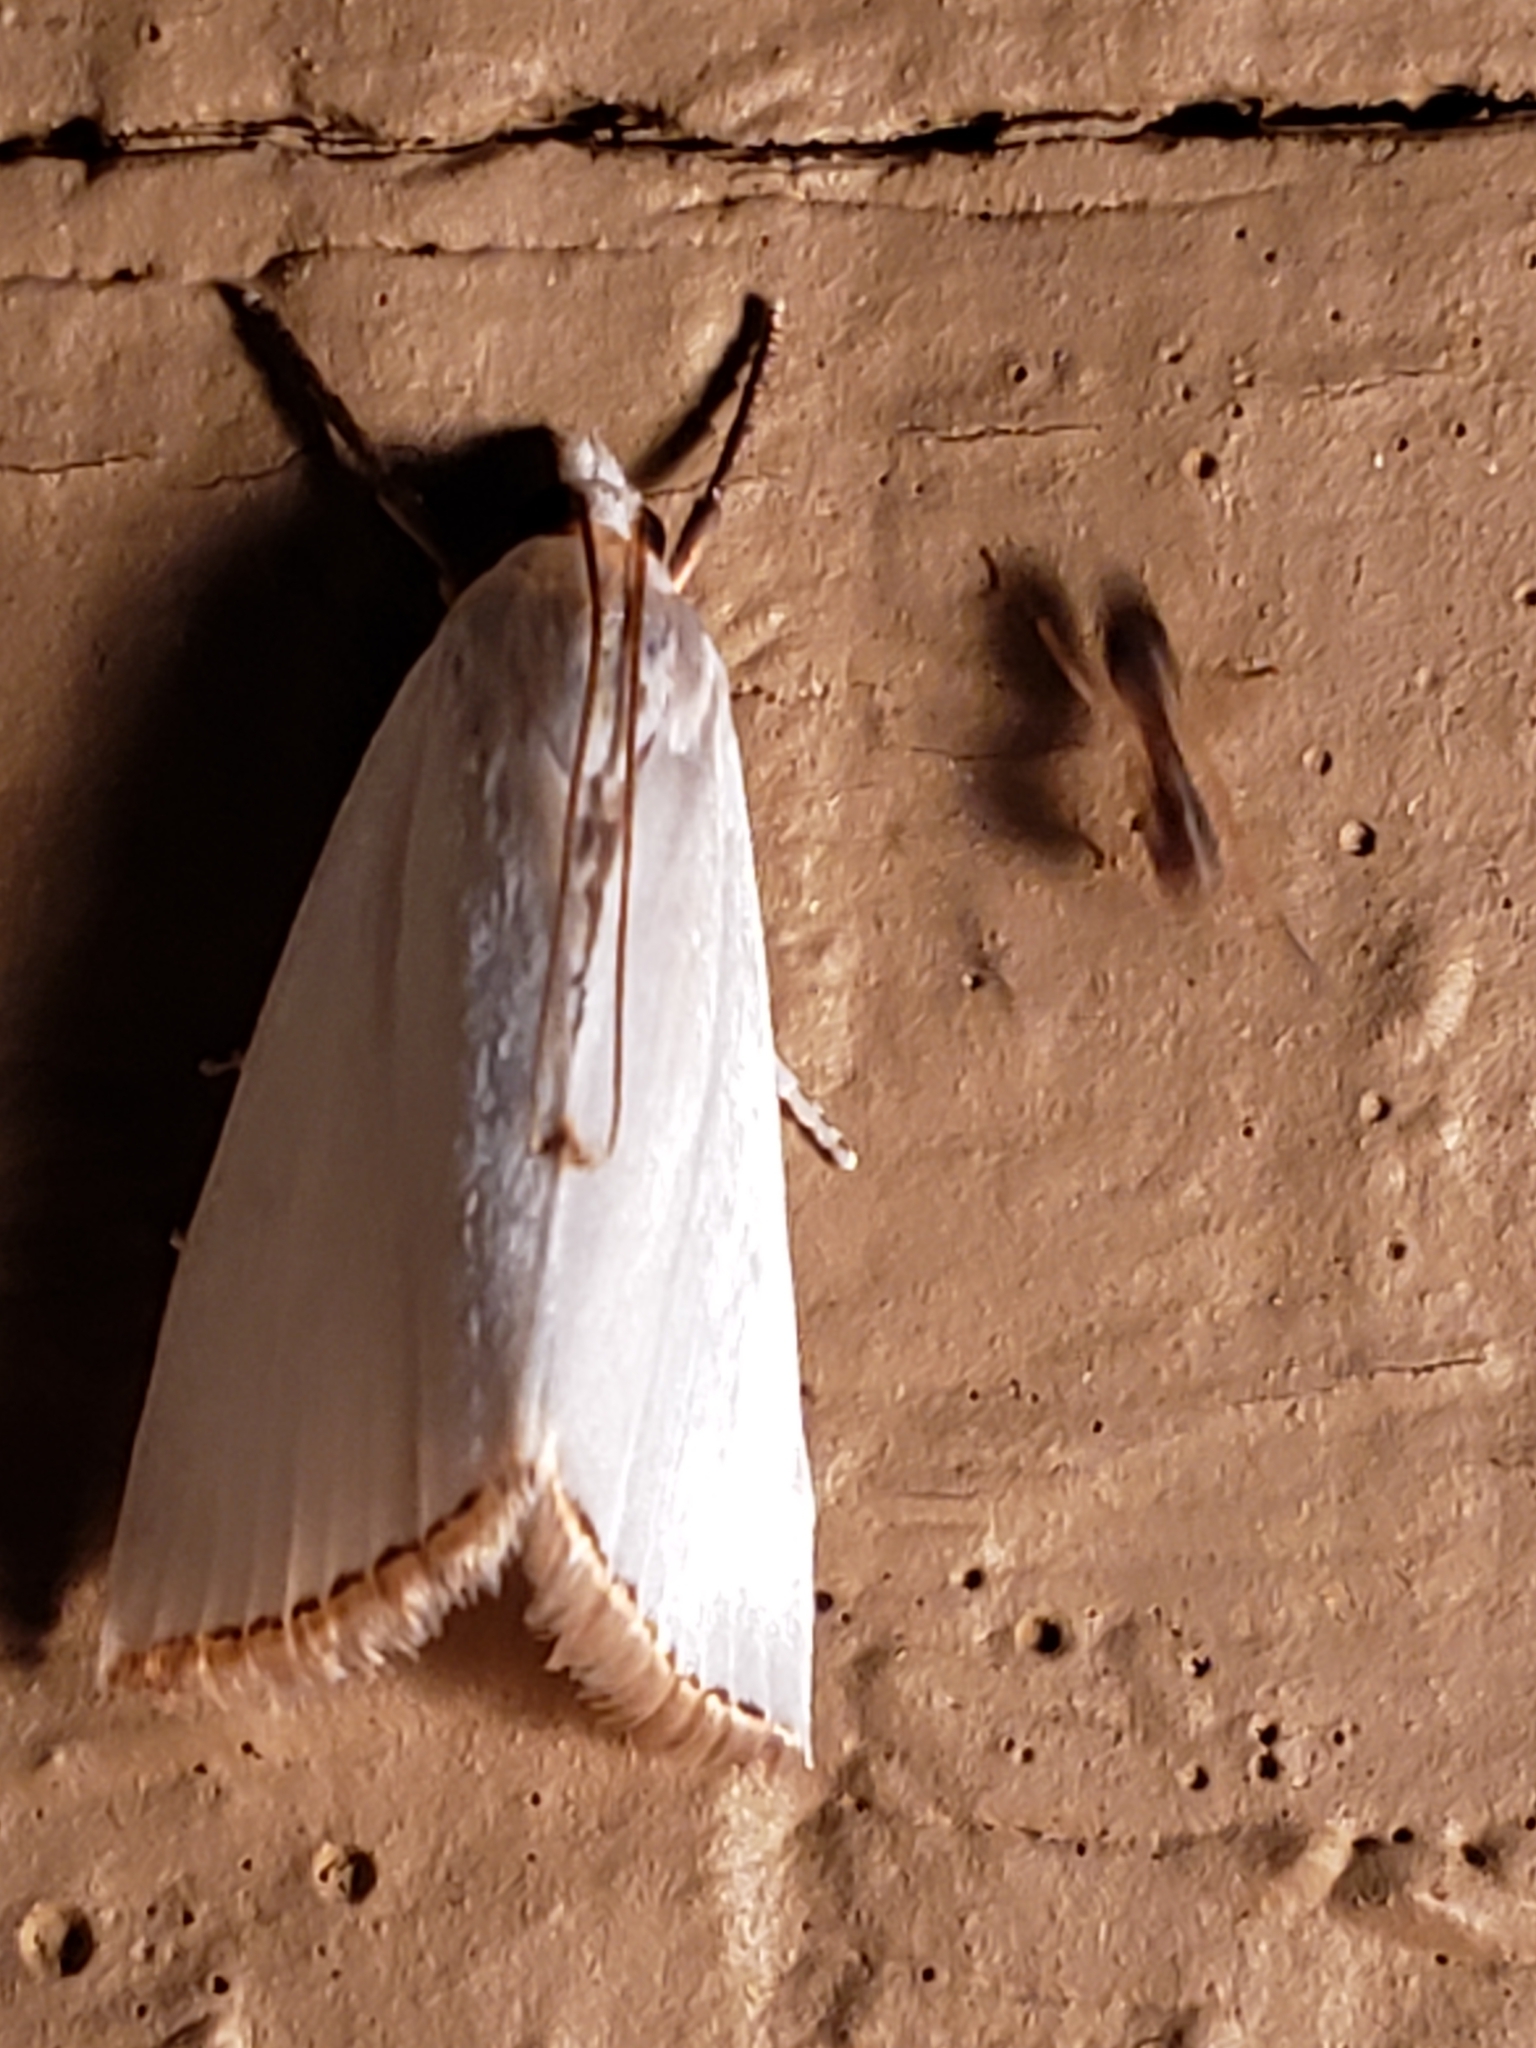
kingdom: Animalia
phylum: Arthropoda
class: Insecta
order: Lepidoptera
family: Crambidae
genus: Argyria
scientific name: Argyria nivalis
